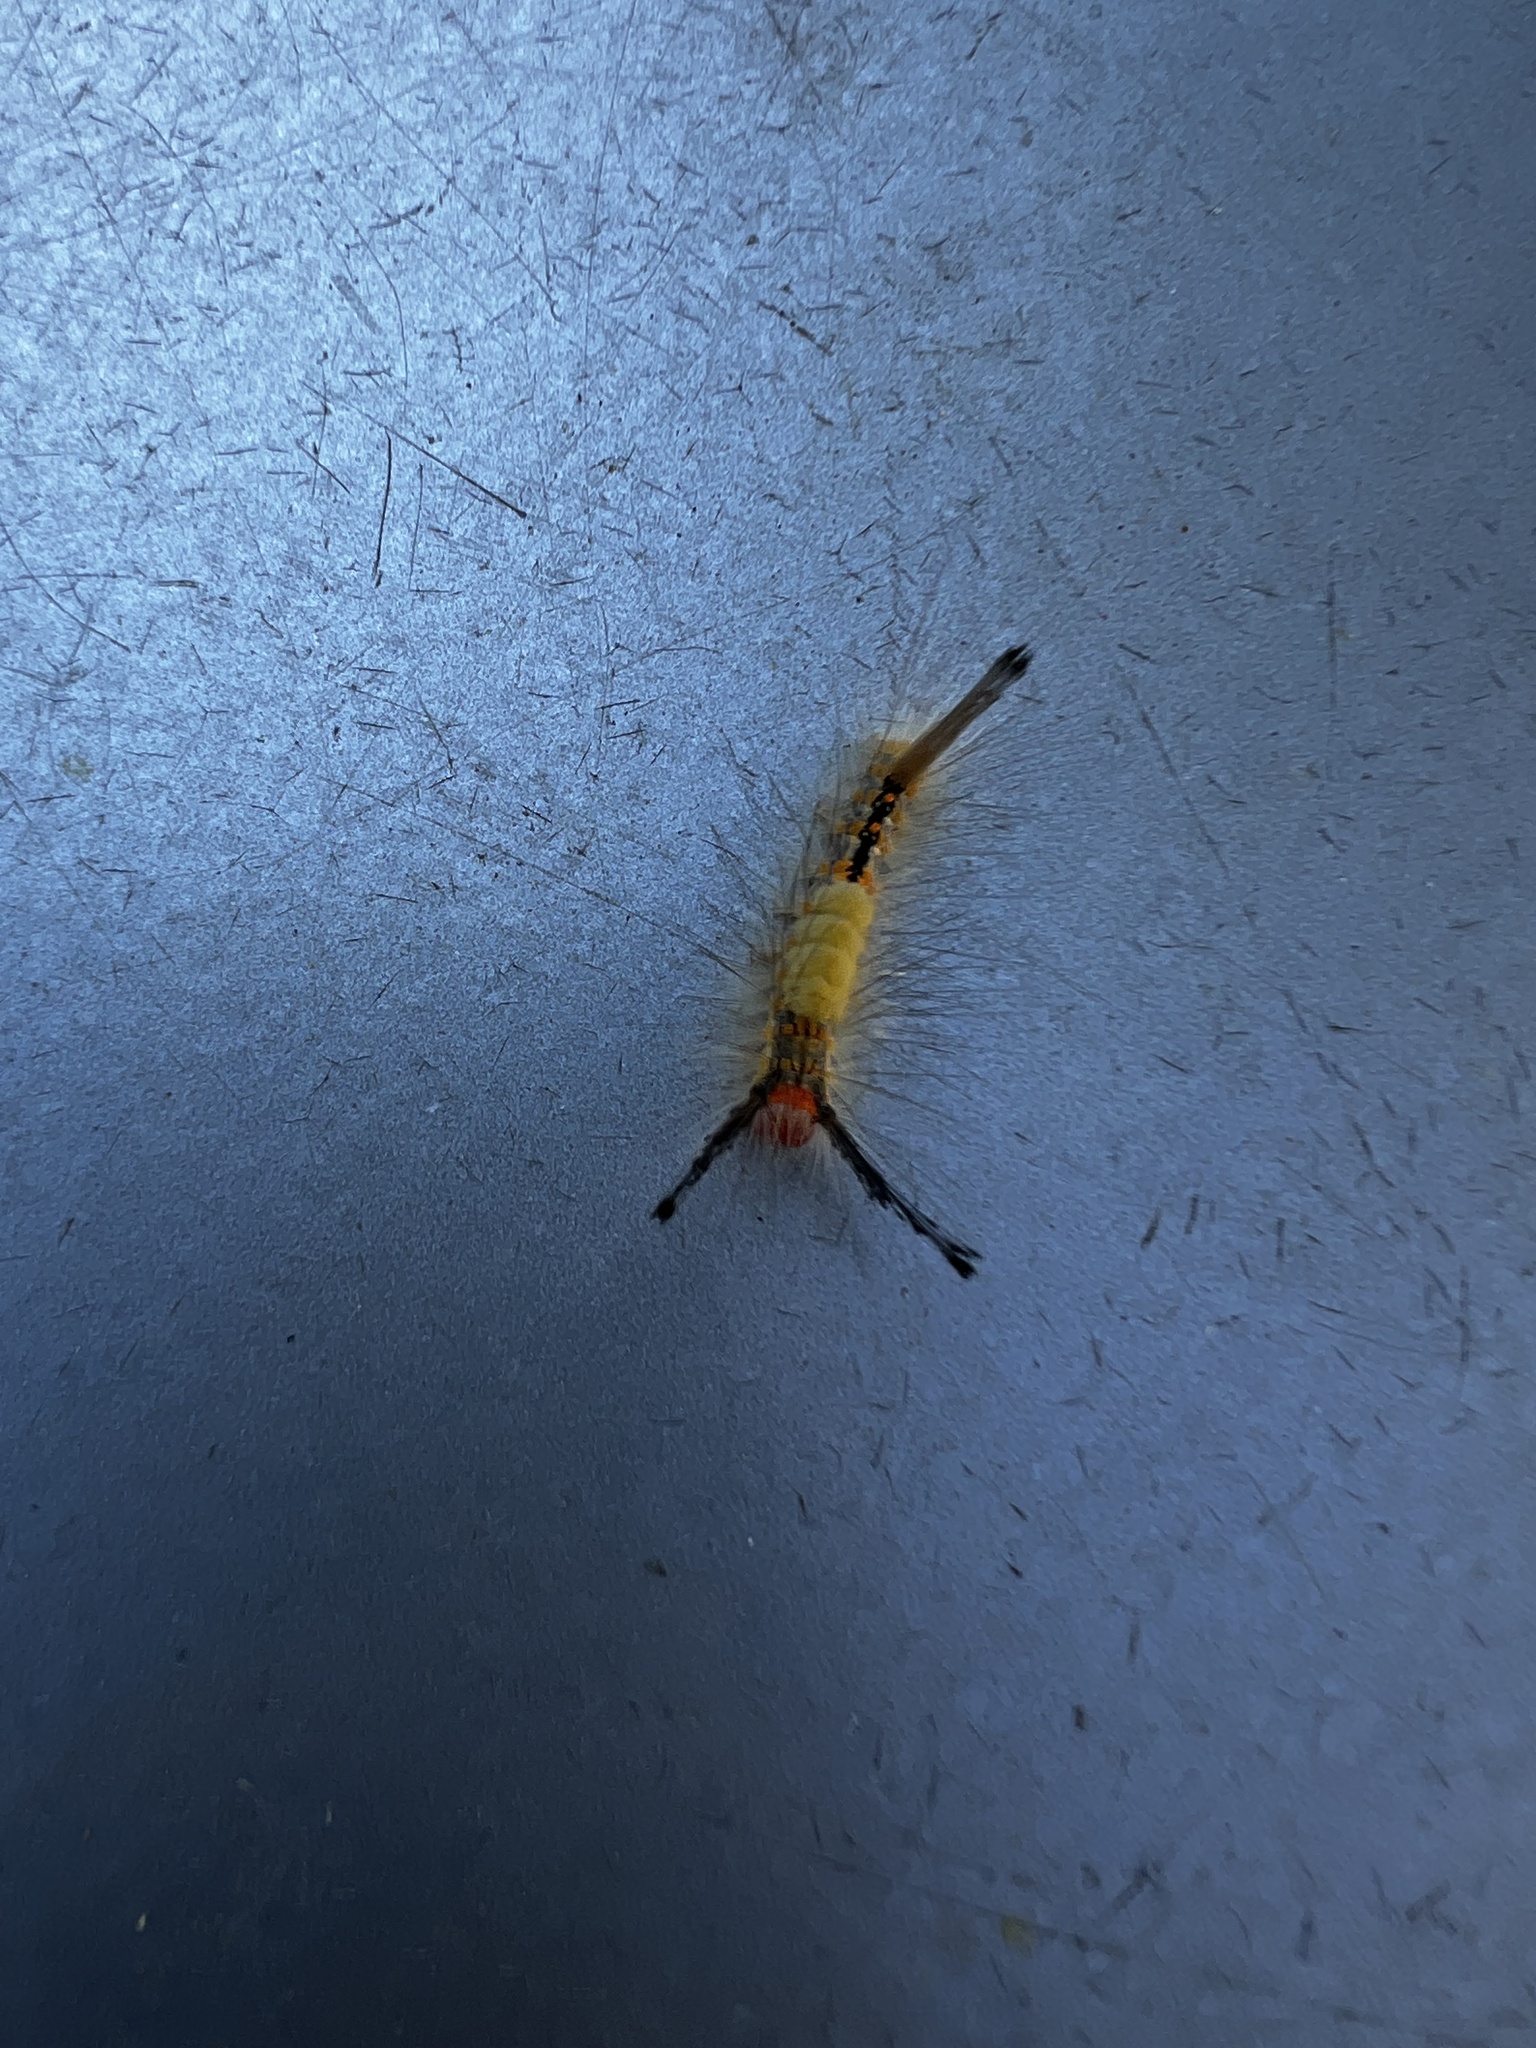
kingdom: Animalia
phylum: Arthropoda
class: Insecta
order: Lepidoptera
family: Erebidae
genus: Orgyia
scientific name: Orgyia detrita
